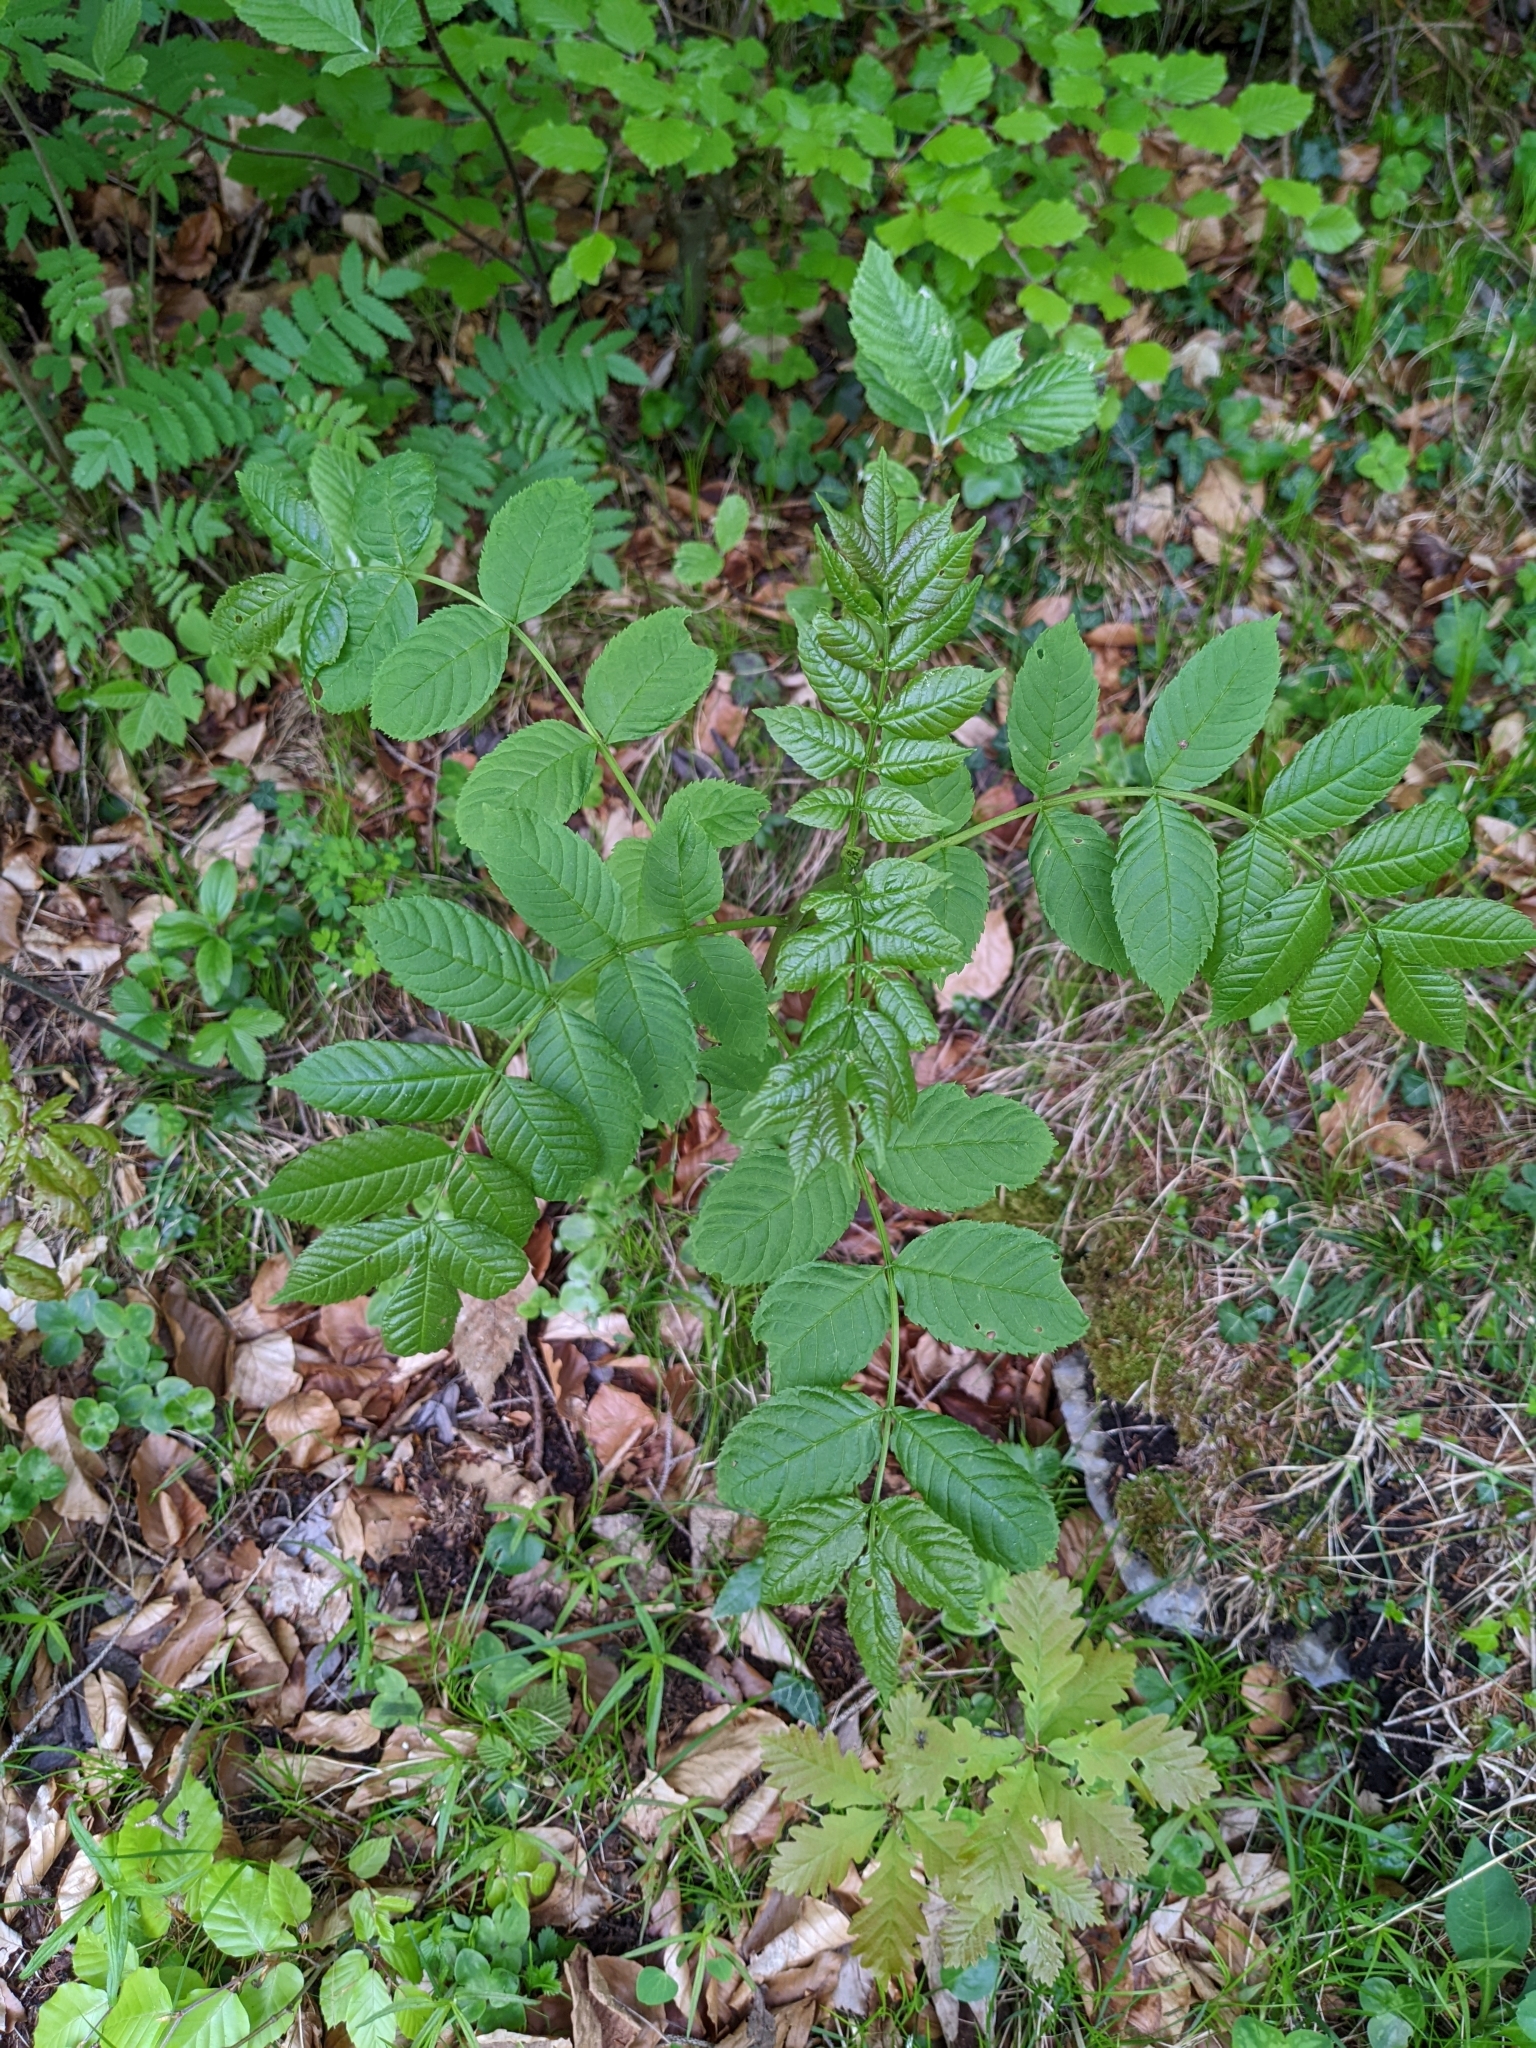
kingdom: Plantae
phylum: Tracheophyta
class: Magnoliopsida
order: Lamiales
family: Oleaceae
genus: Fraxinus
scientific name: Fraxinus excelsior
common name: European ash
